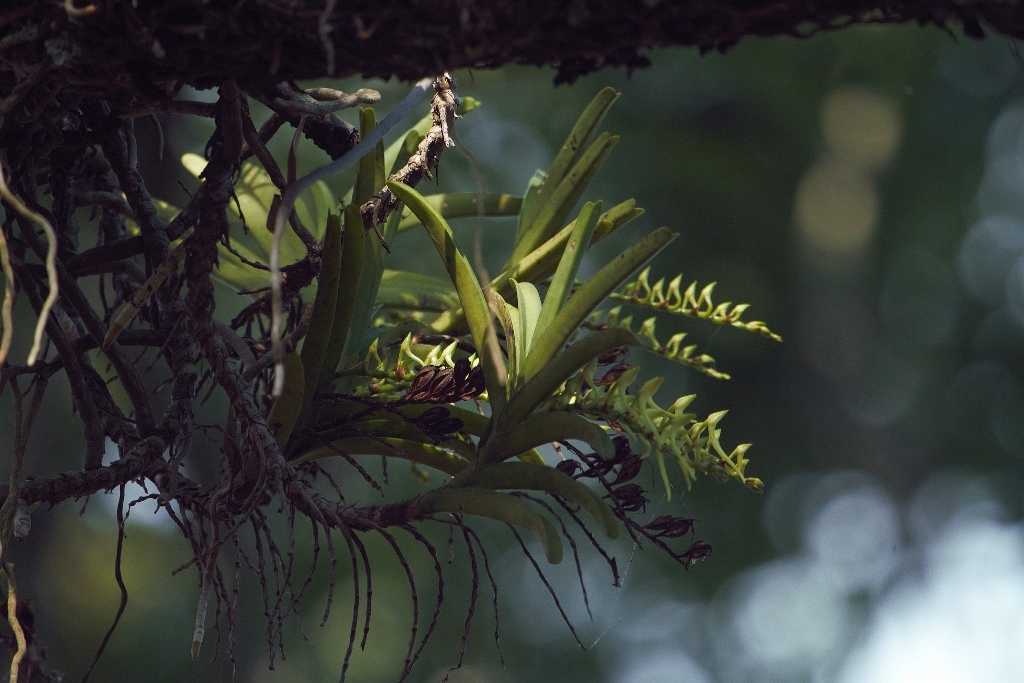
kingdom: Plantae
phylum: Tracheophyta
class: Liliopsida
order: Asparagales
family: Orchidaceae
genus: Cyrtorchis
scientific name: Cyrtorchis praetermissa
